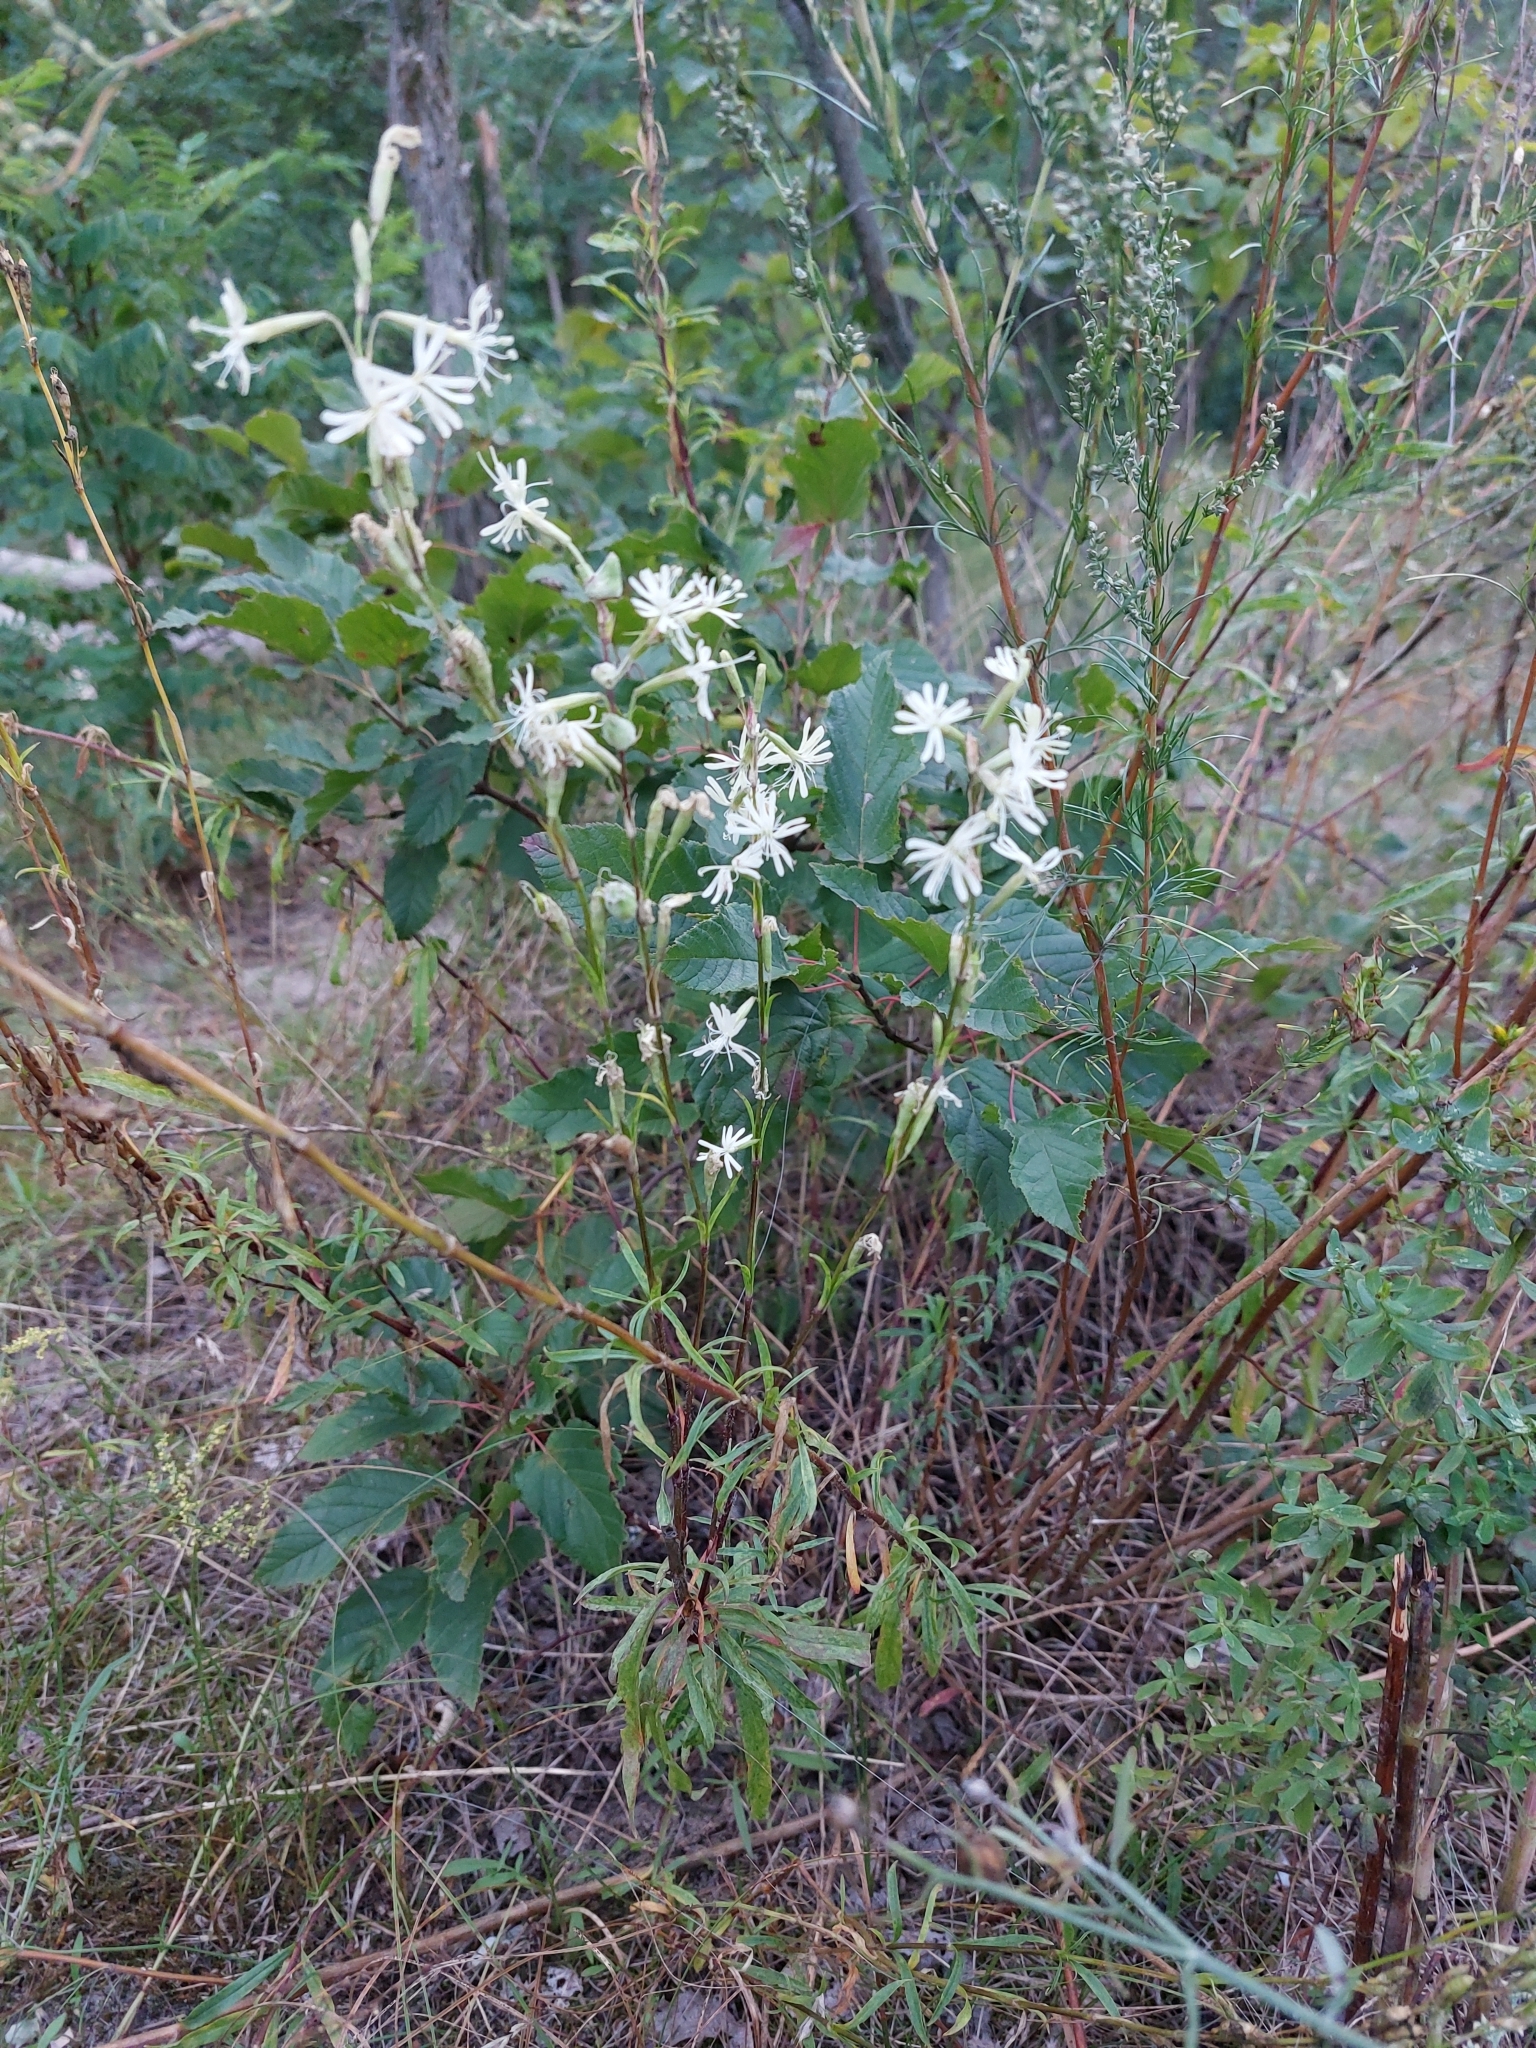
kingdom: Plantae
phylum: Tracheophyta
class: Magnoliopsida
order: Caryophyllales
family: Caryophyllaceae
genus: Silene
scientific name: Silene tatarica
